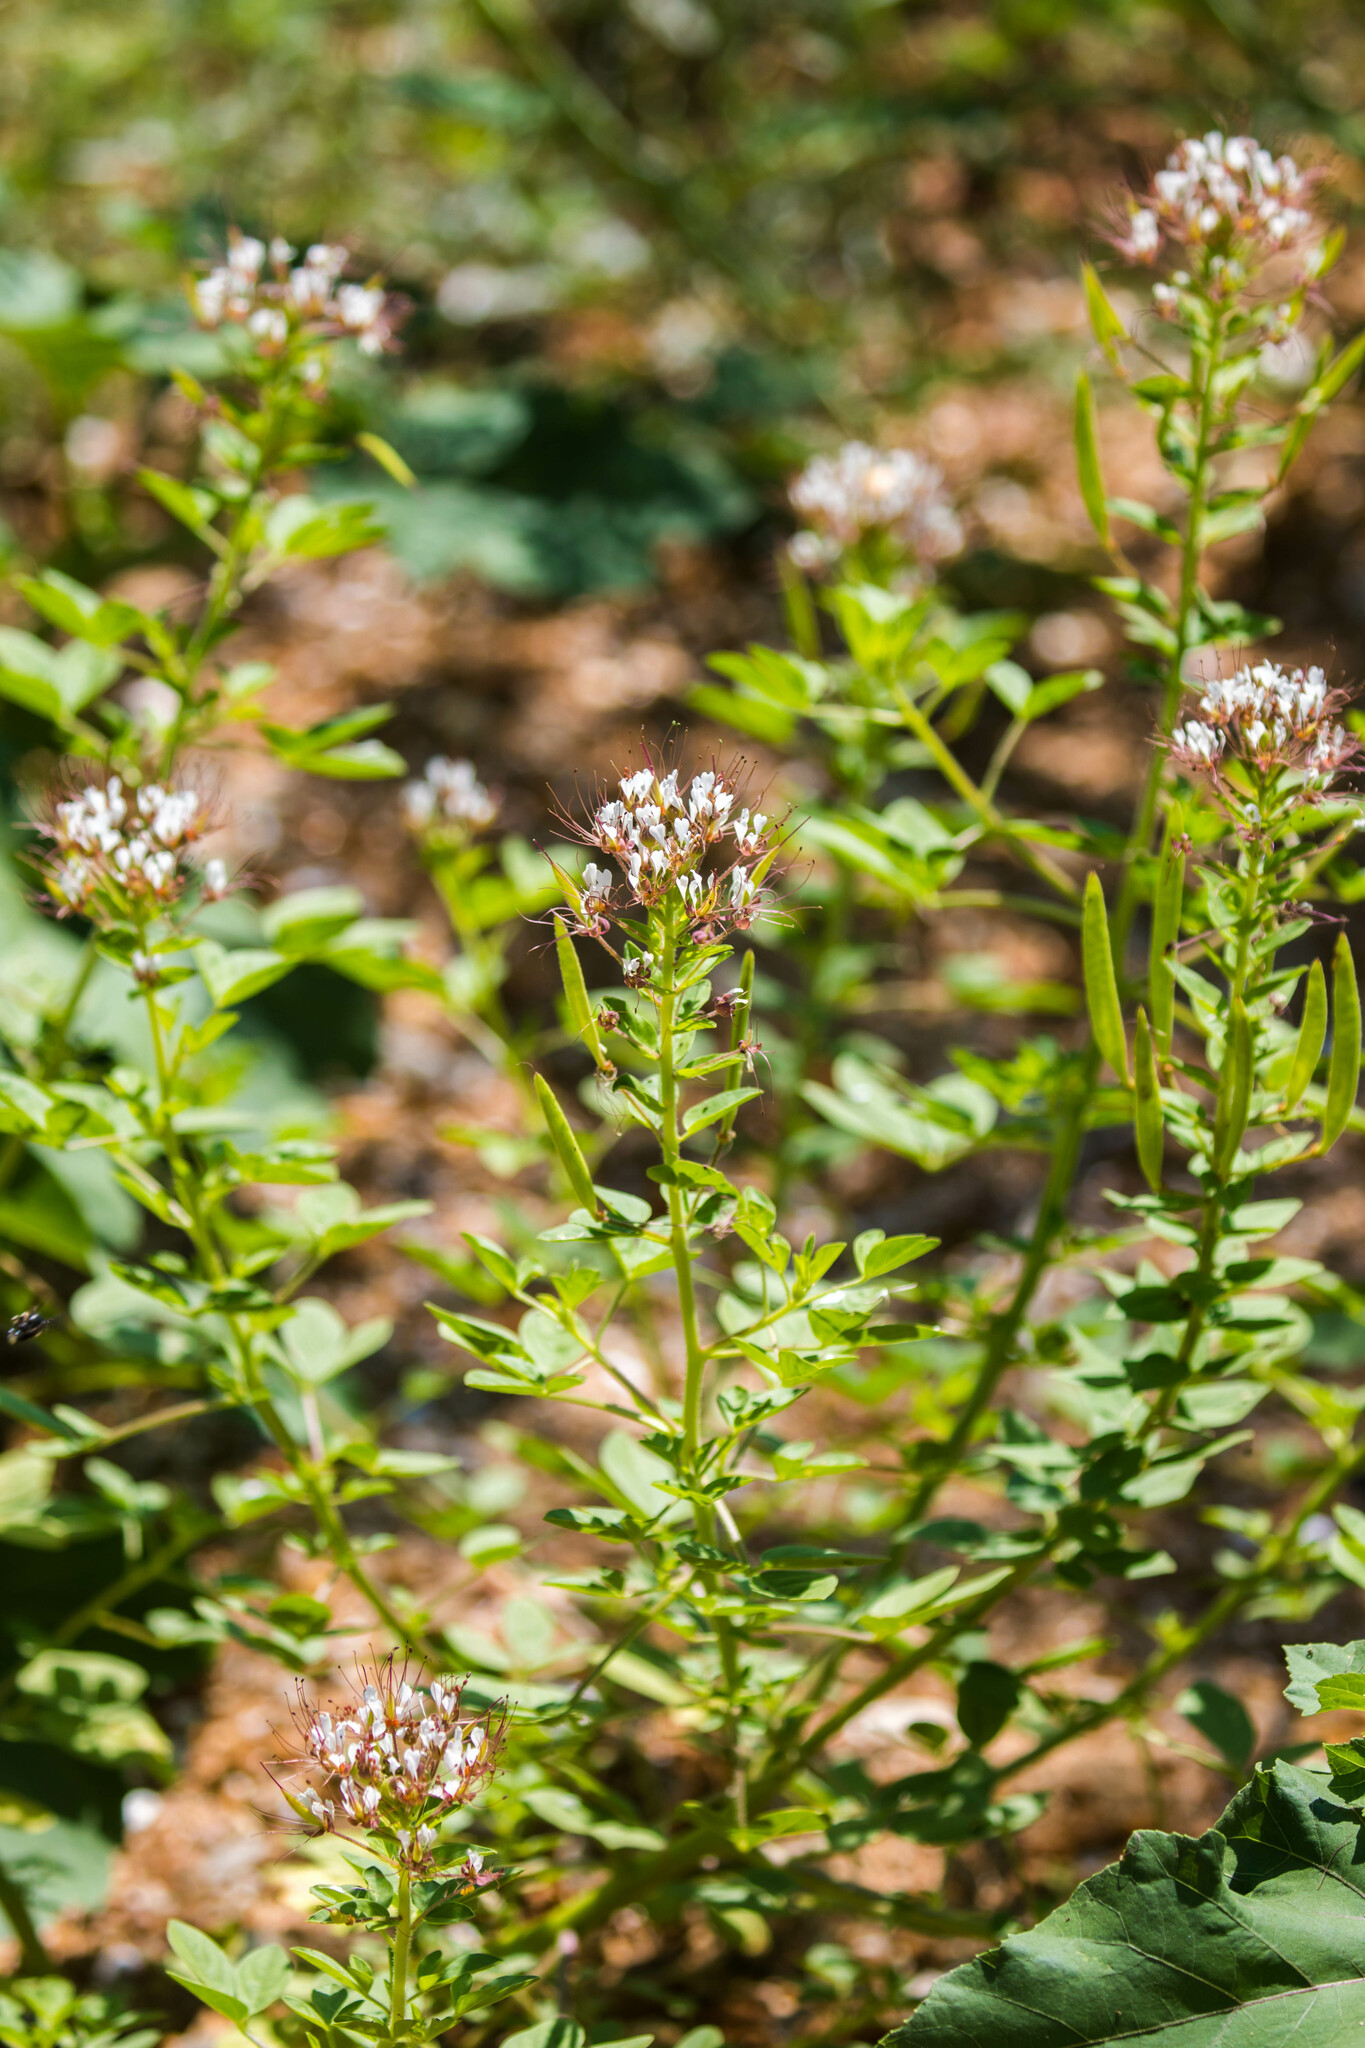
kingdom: Plantae
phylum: Tracheophyta
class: Magnoliopsida
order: Brassicales
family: Cleomaceae
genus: Polanisia
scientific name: Polanisia dodecandra
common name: Clammyweed
